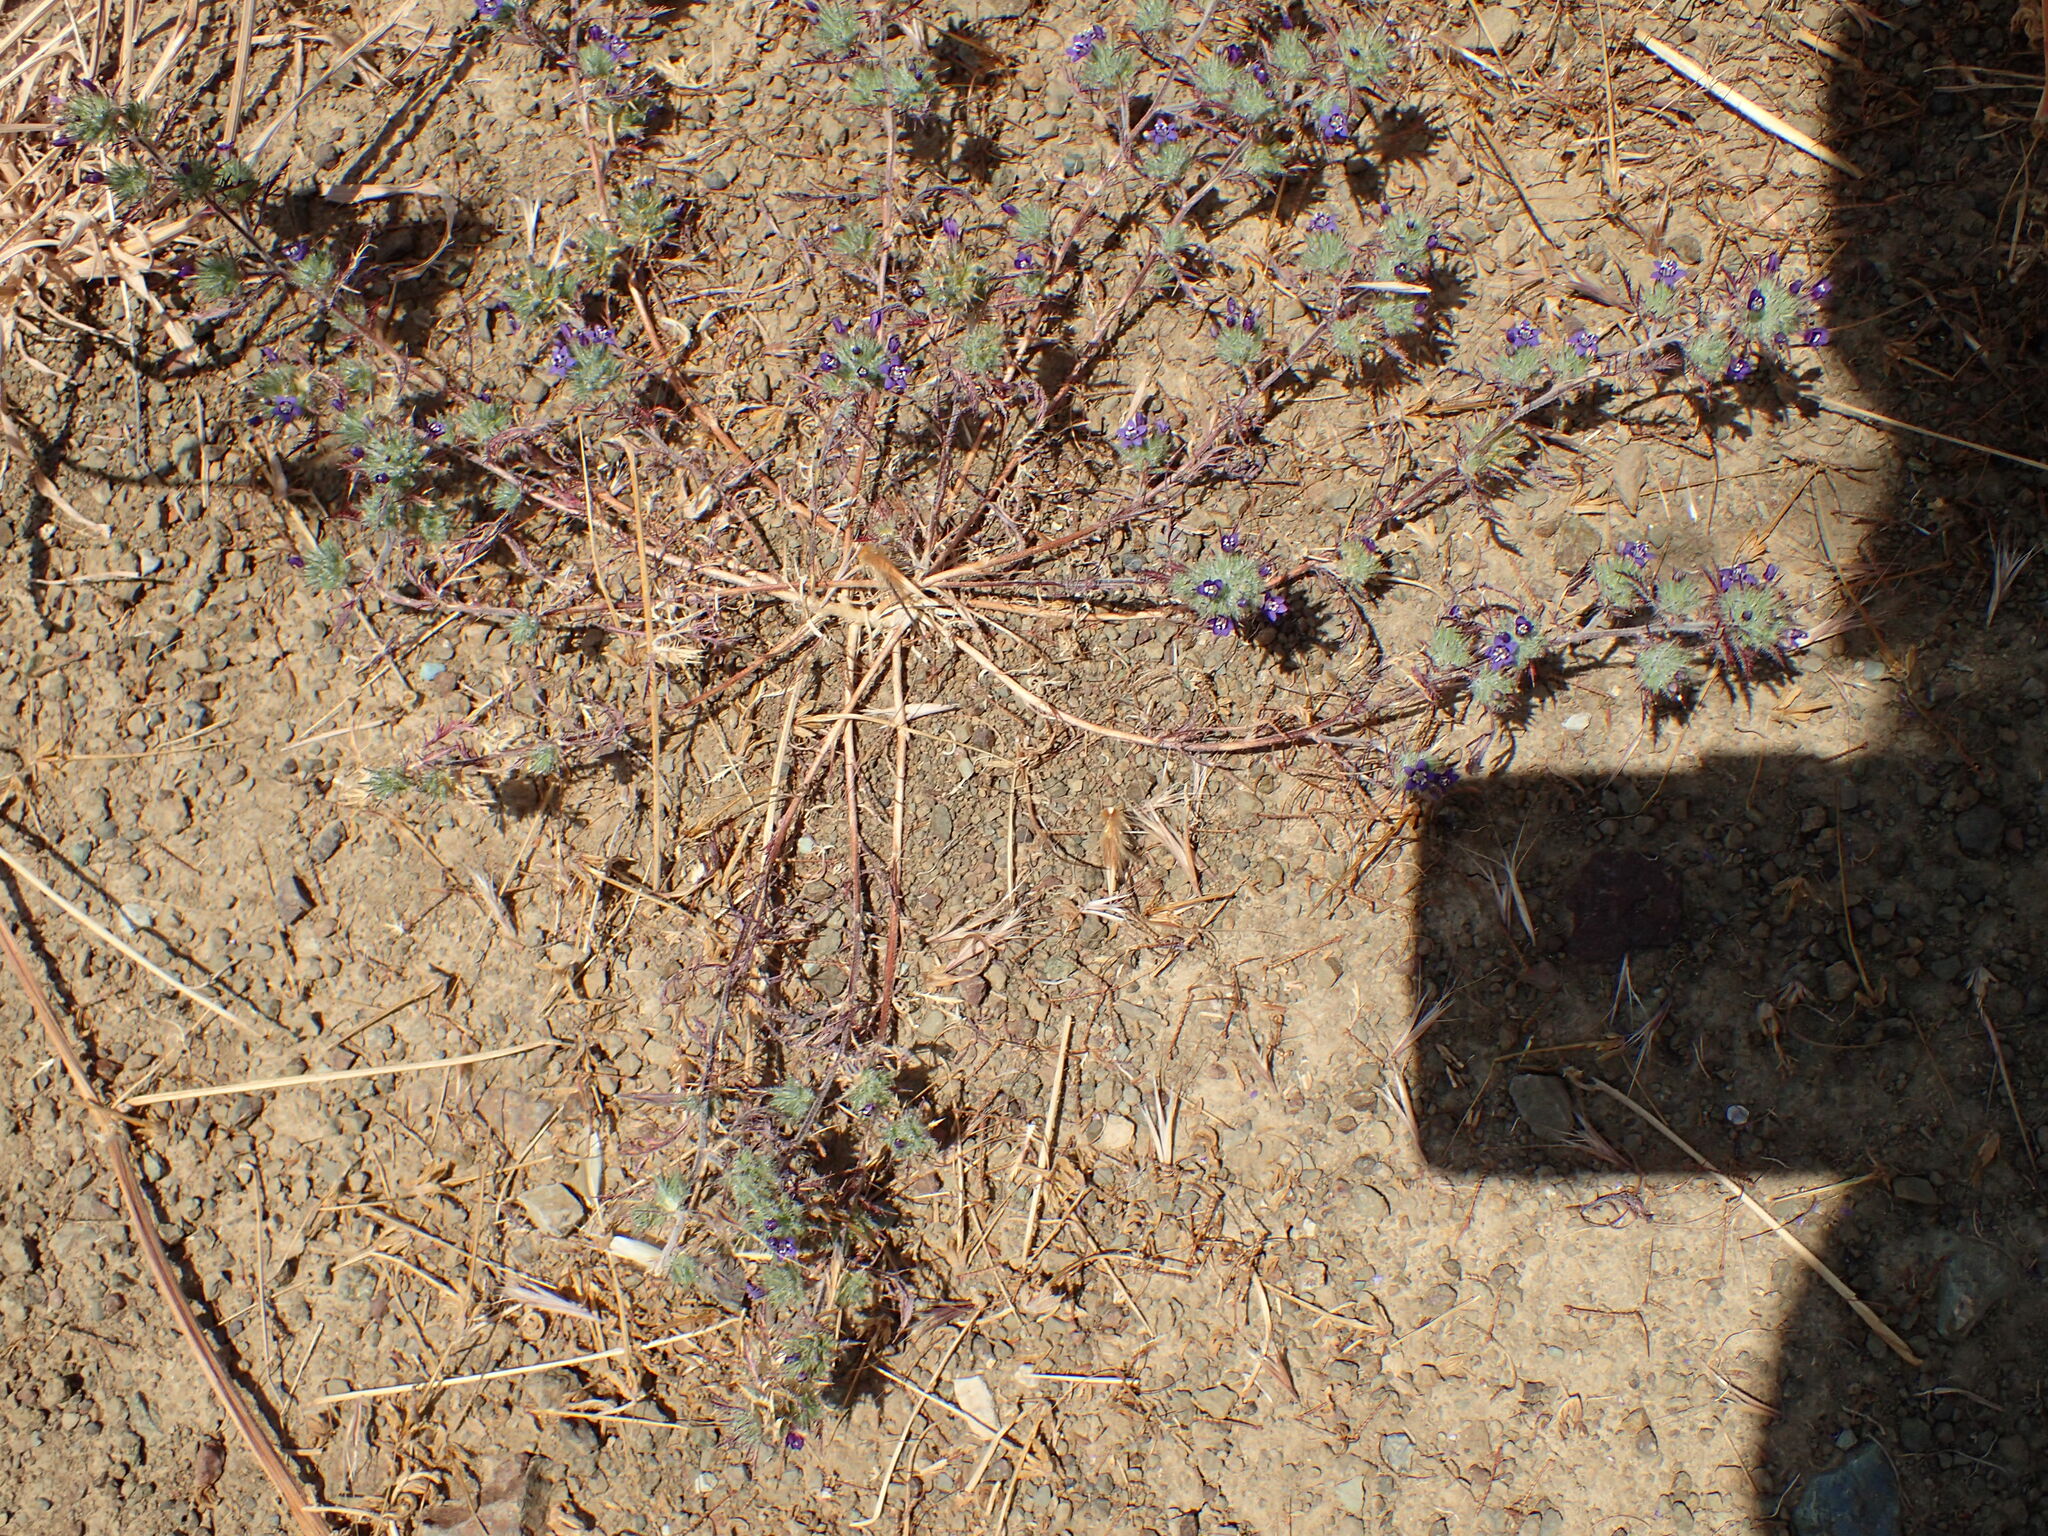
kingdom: Plantae
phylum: Tracheophyta
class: Magnoliopsida
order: Ericales
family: Polemoniaceae
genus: Navarretia
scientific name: Navarretia pubescens
